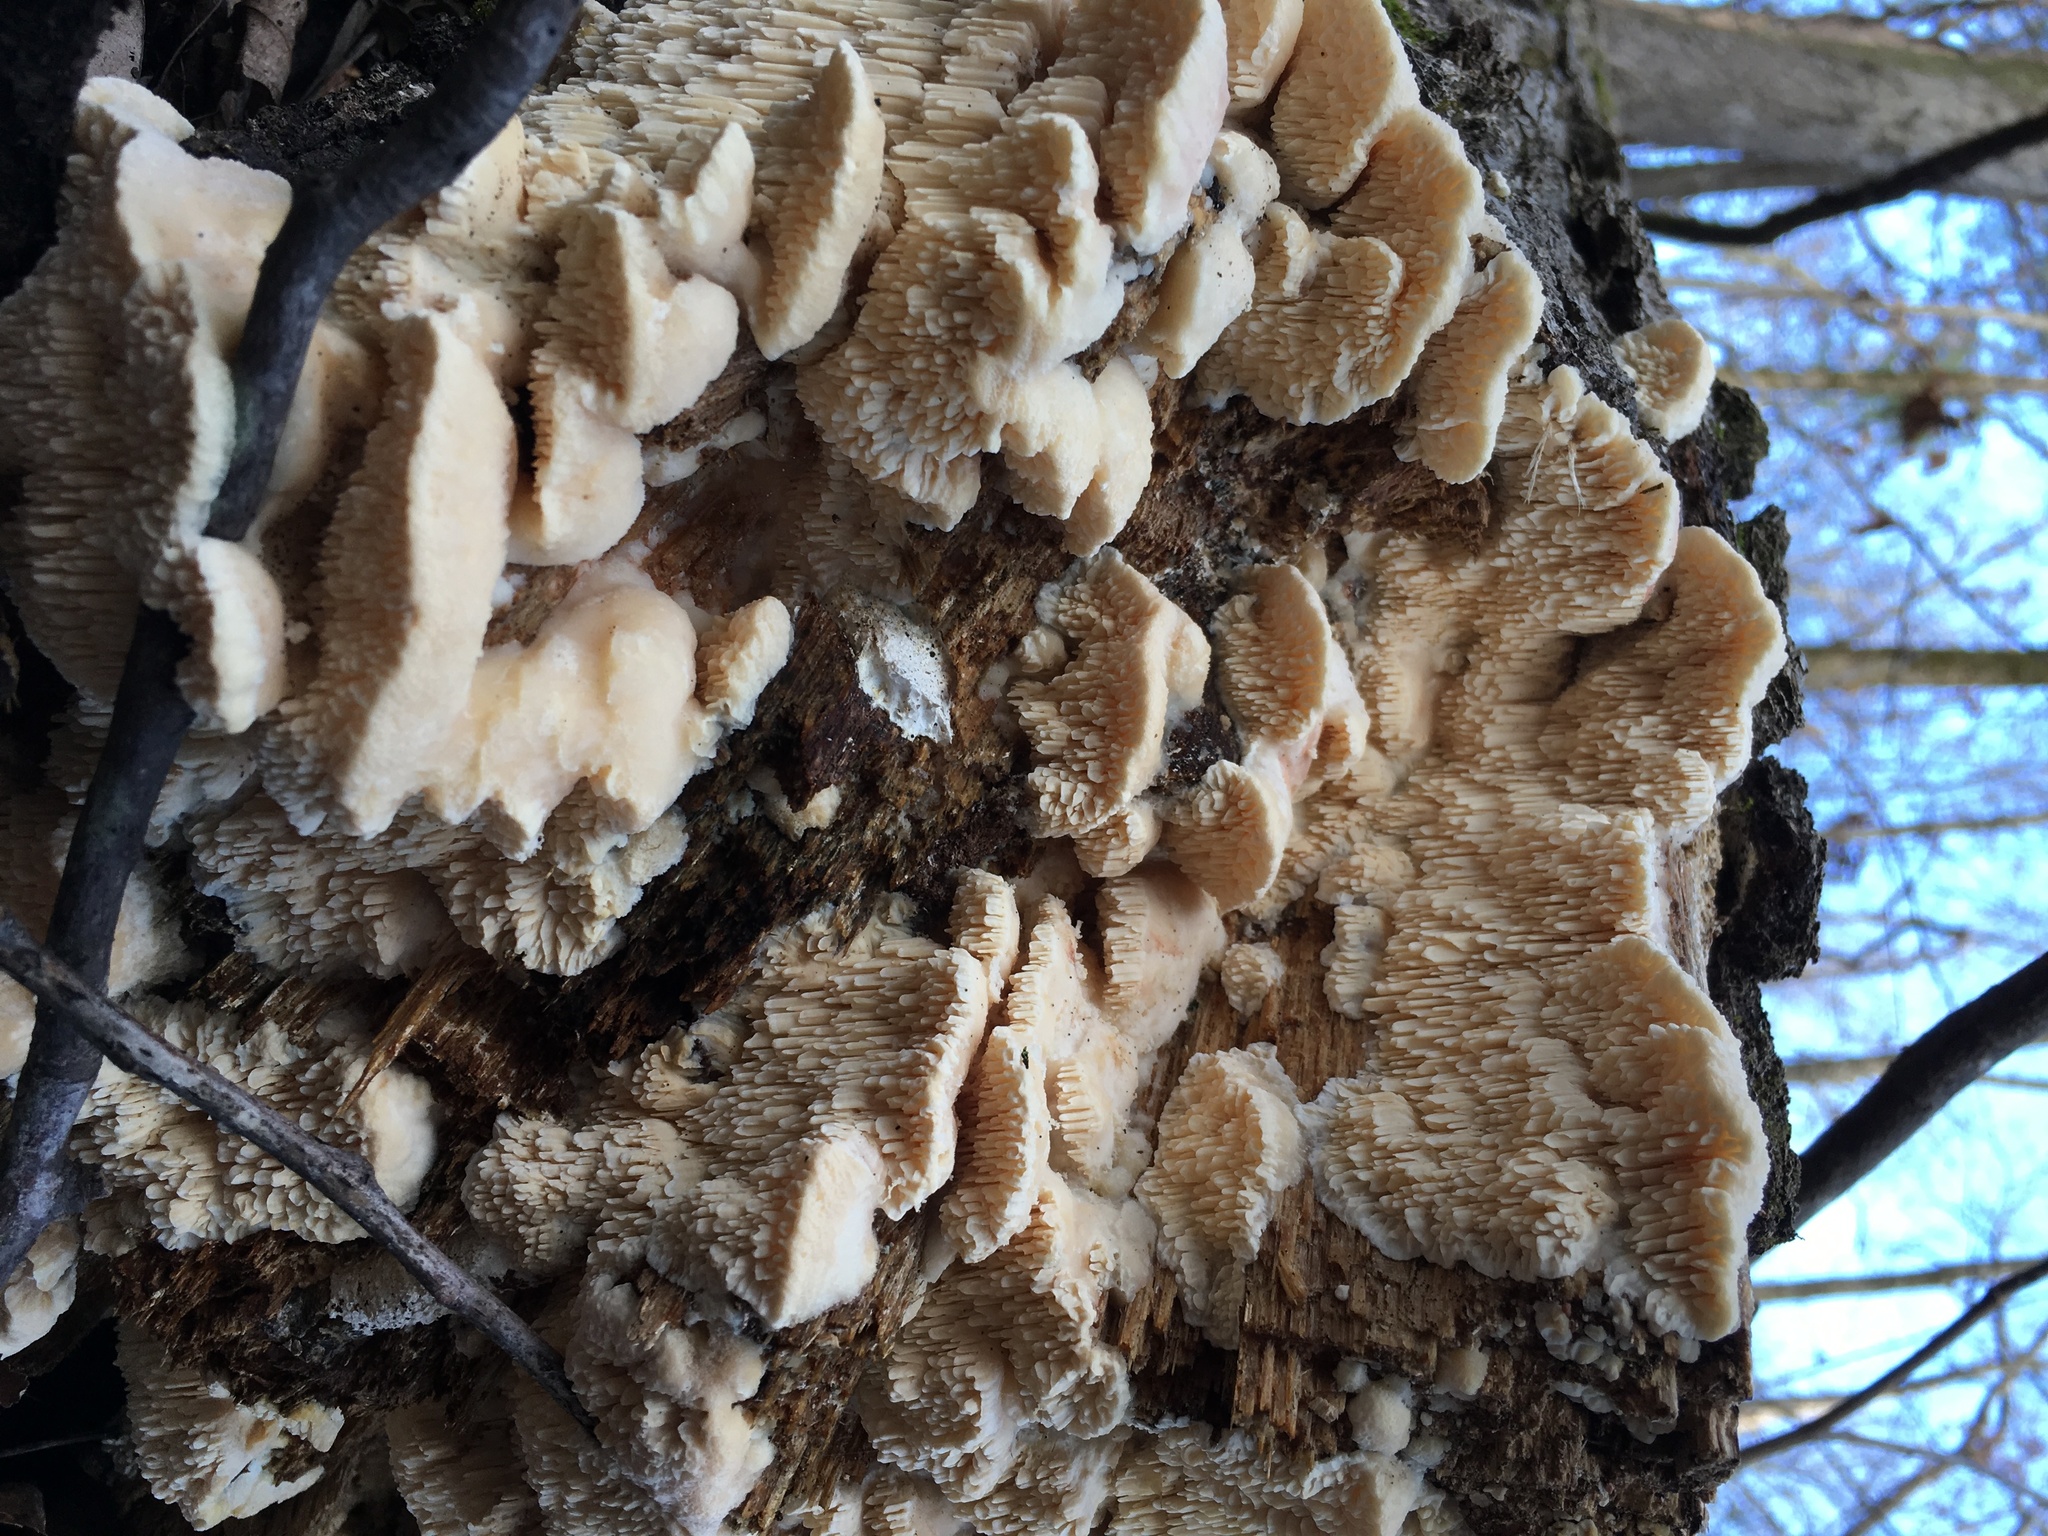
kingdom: Fungi
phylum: Basidiomycota
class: Agaricomycetes
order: Polyporales
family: Meruliaceae
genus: Irpiciporus
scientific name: Irpiciporus pachyodon
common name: Marshmallow polypore
